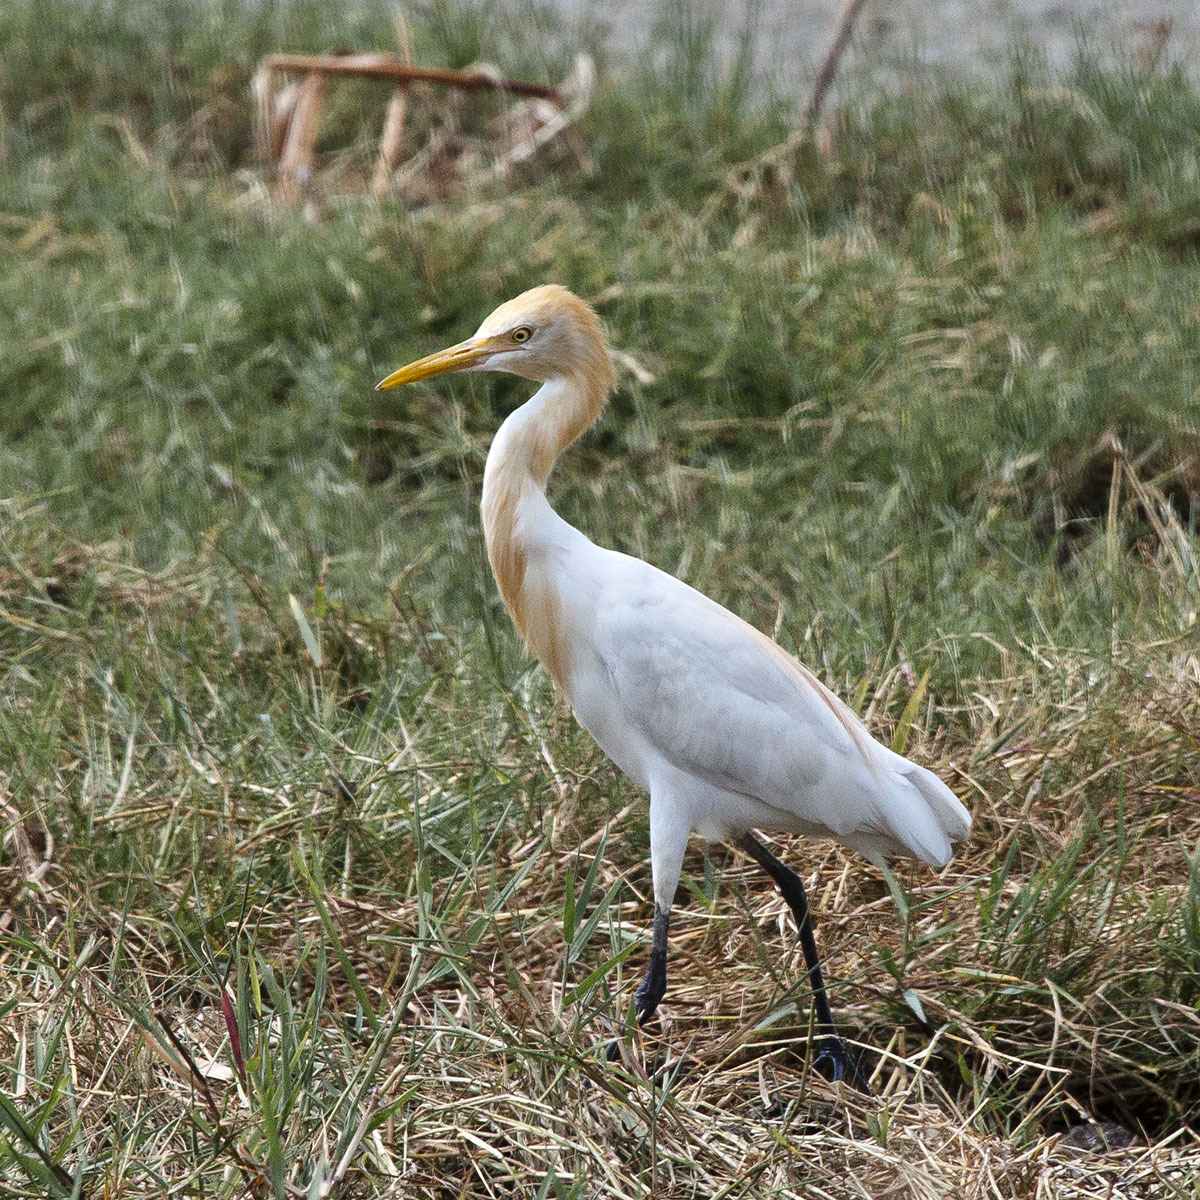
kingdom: Animalia
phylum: Chordata
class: Aves
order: Pelecaniformes
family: Ardeidae
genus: Bubulcus
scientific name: Bubulcus coromandus
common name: Eastern cattle egret
